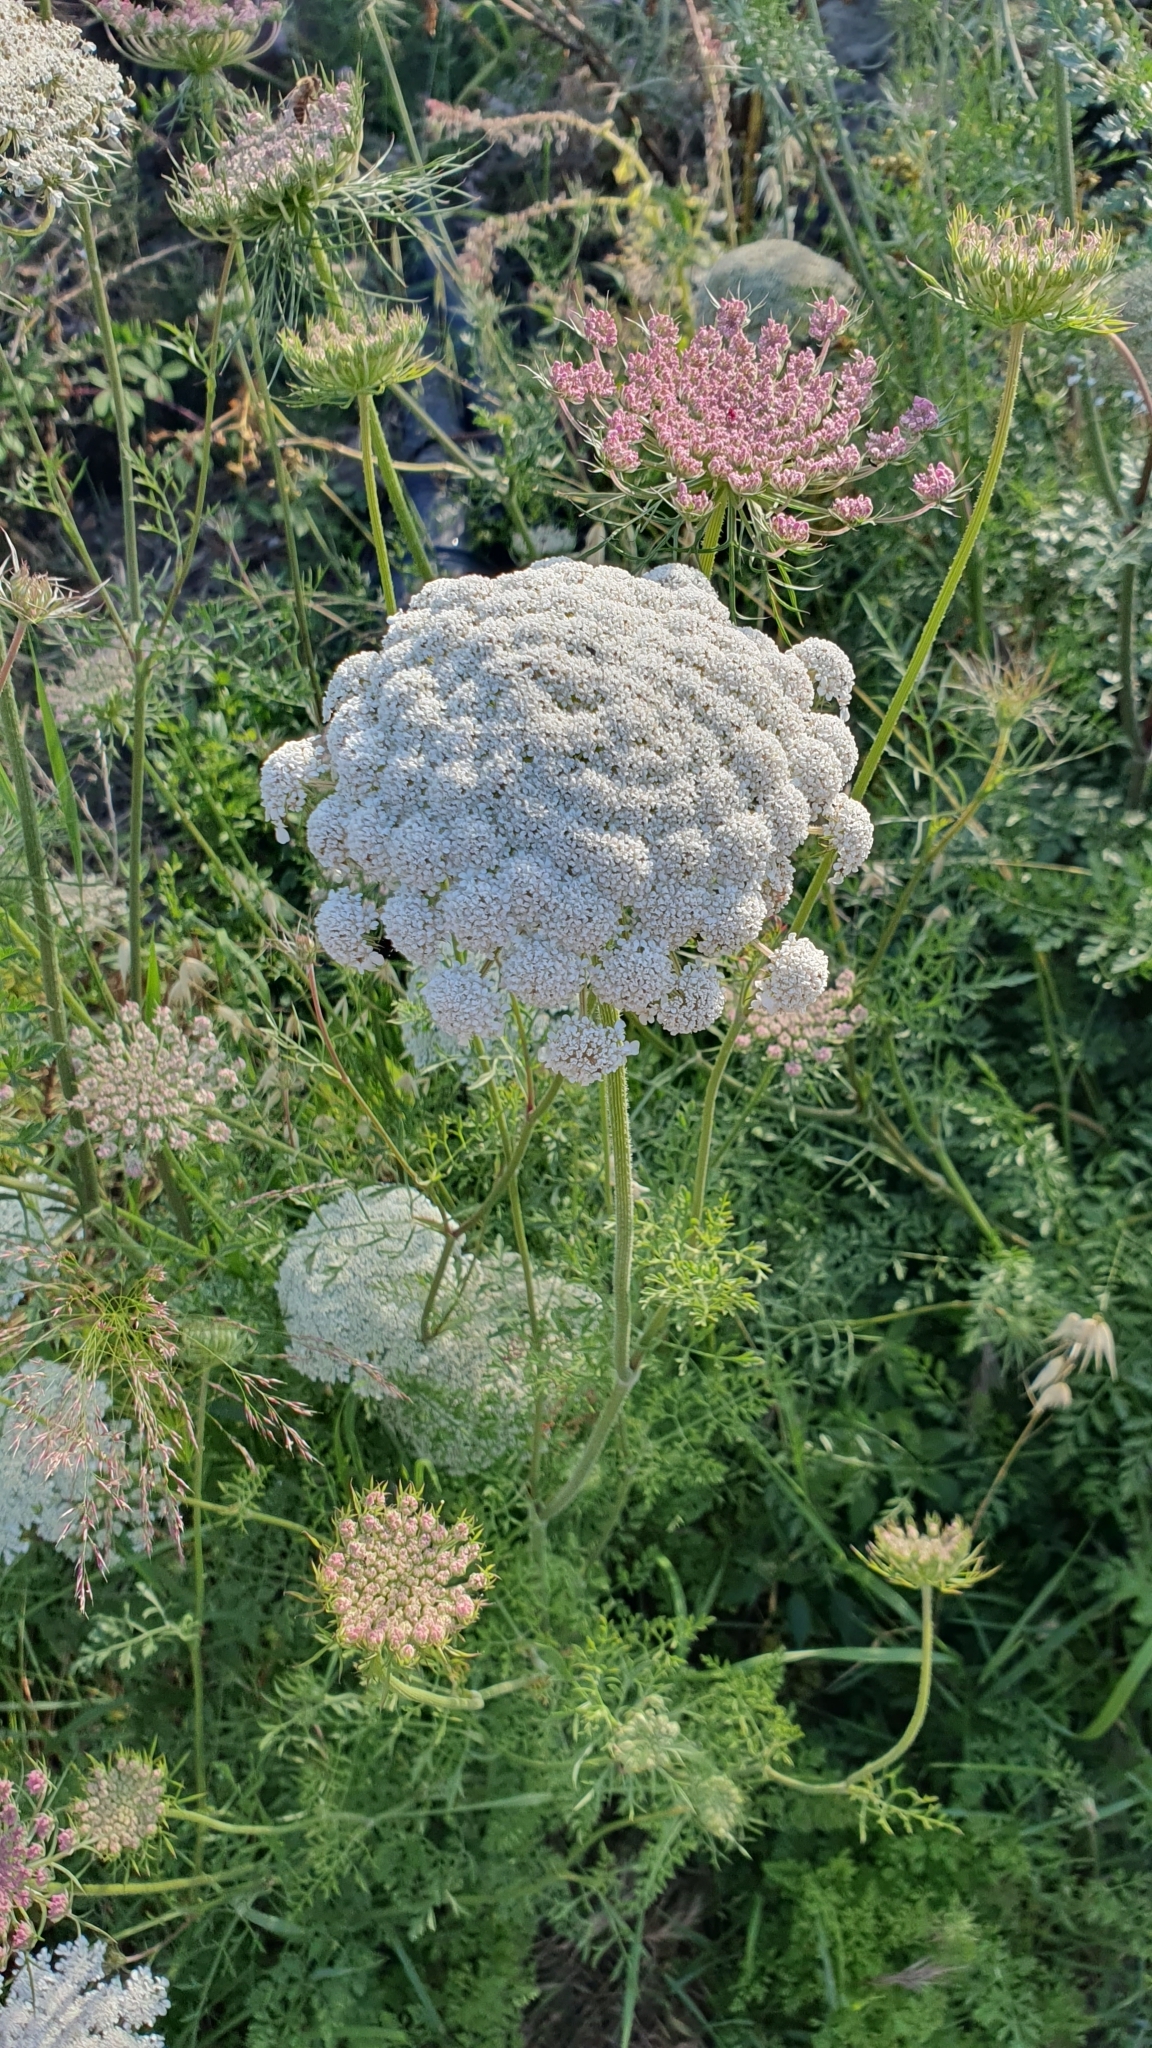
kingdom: Plantae
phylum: Tracheophyta
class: Magnoliopsida
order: Apiales
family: Apiaceae
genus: Daucus
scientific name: Daucus carota
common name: Wild carrot
